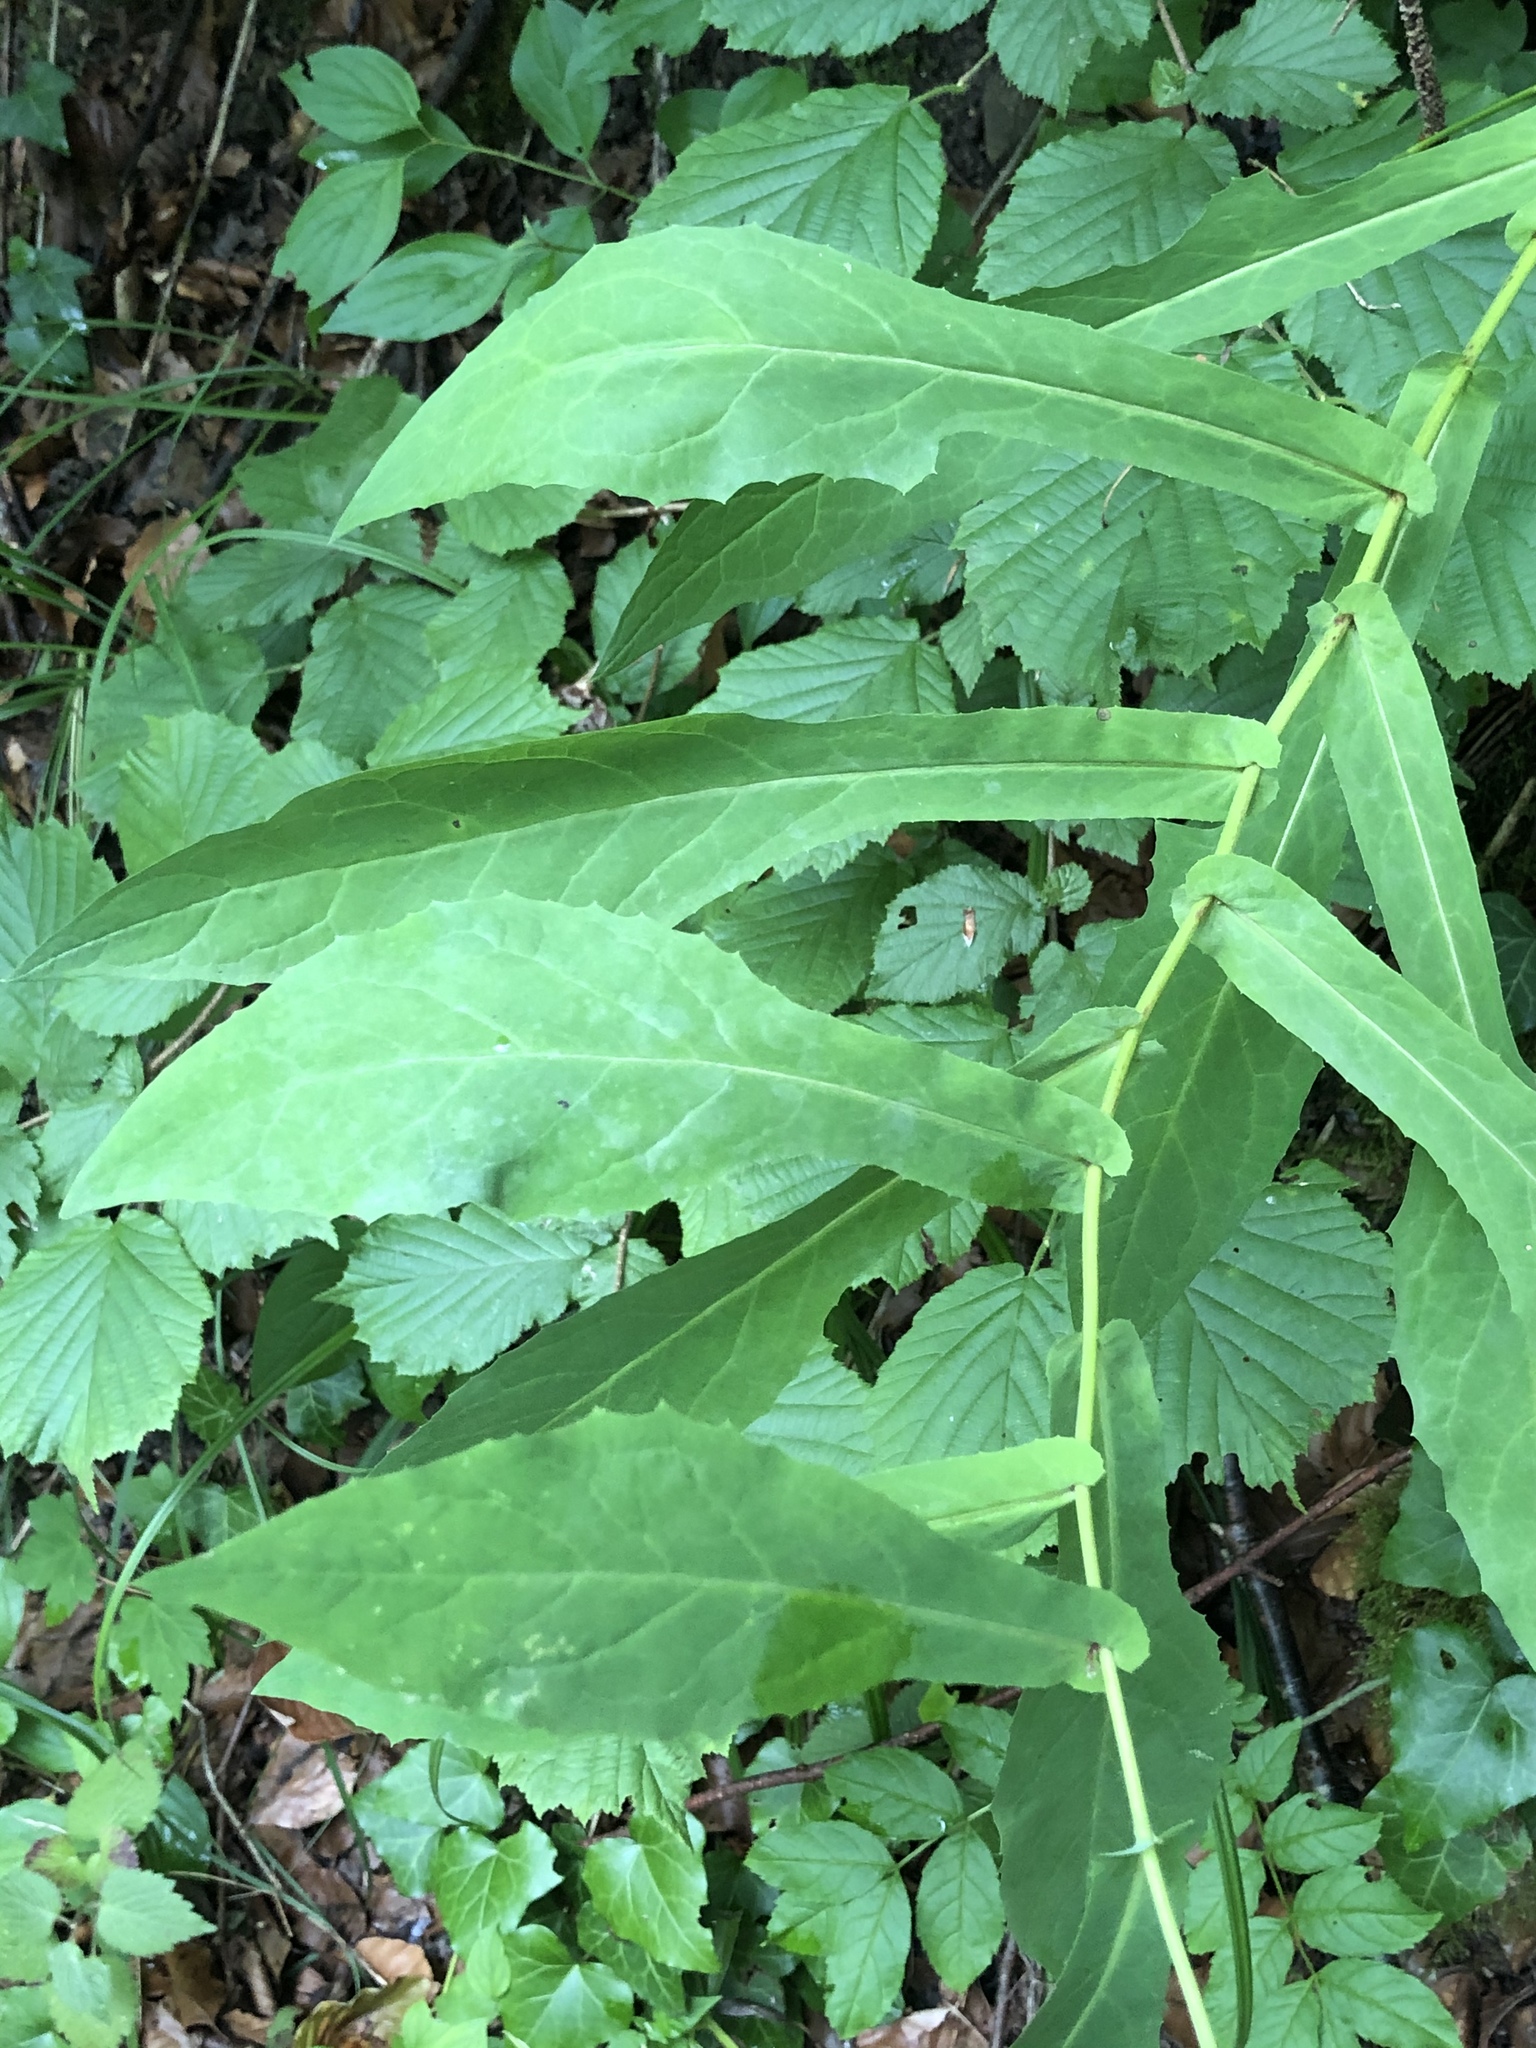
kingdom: Plantae
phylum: Tracheophyta
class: Magnoliopsida
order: Asterales
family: Asteraceae
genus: Prenanthes
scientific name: Prenanthes purpurea
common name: Purple lettuce
